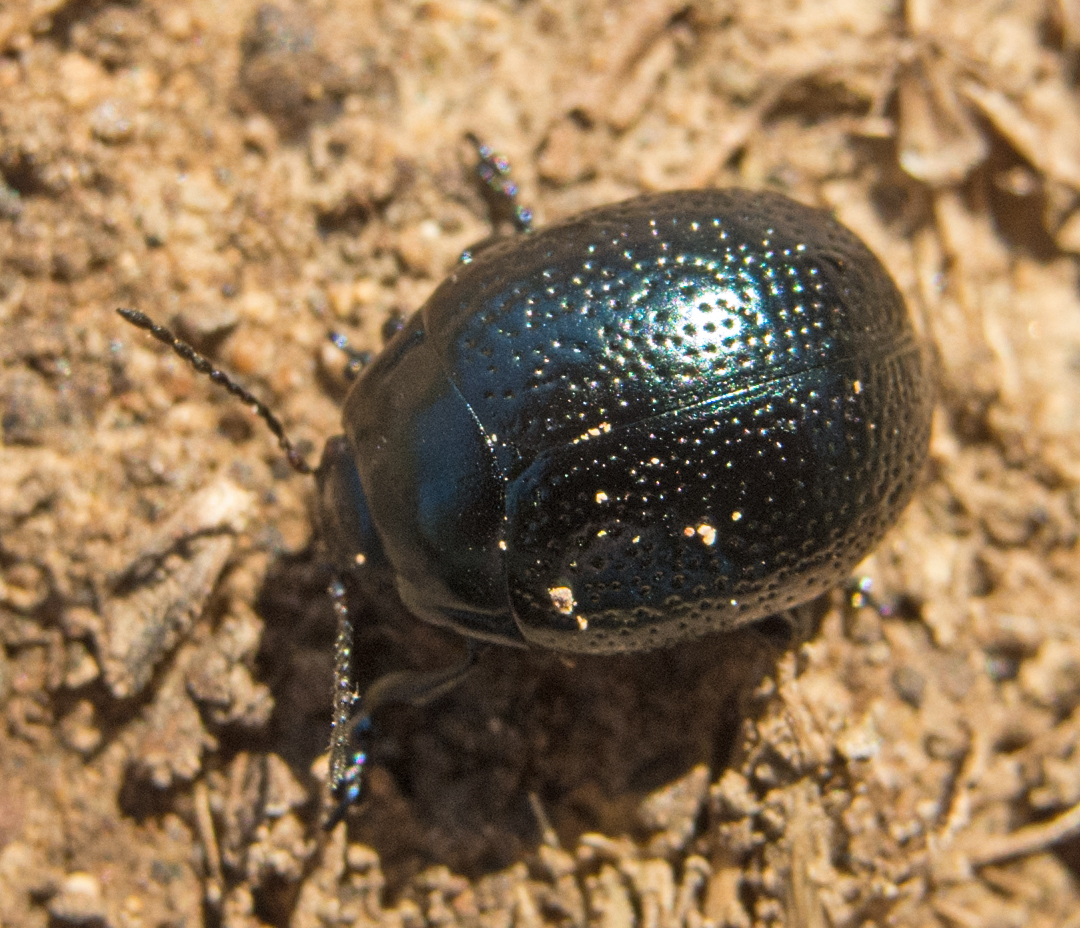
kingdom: Animalia
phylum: Arthropoda
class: Insecta
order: Coleoptera
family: Chrysomelidae
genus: Chrysolina
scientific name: Chrysolina vernalis
